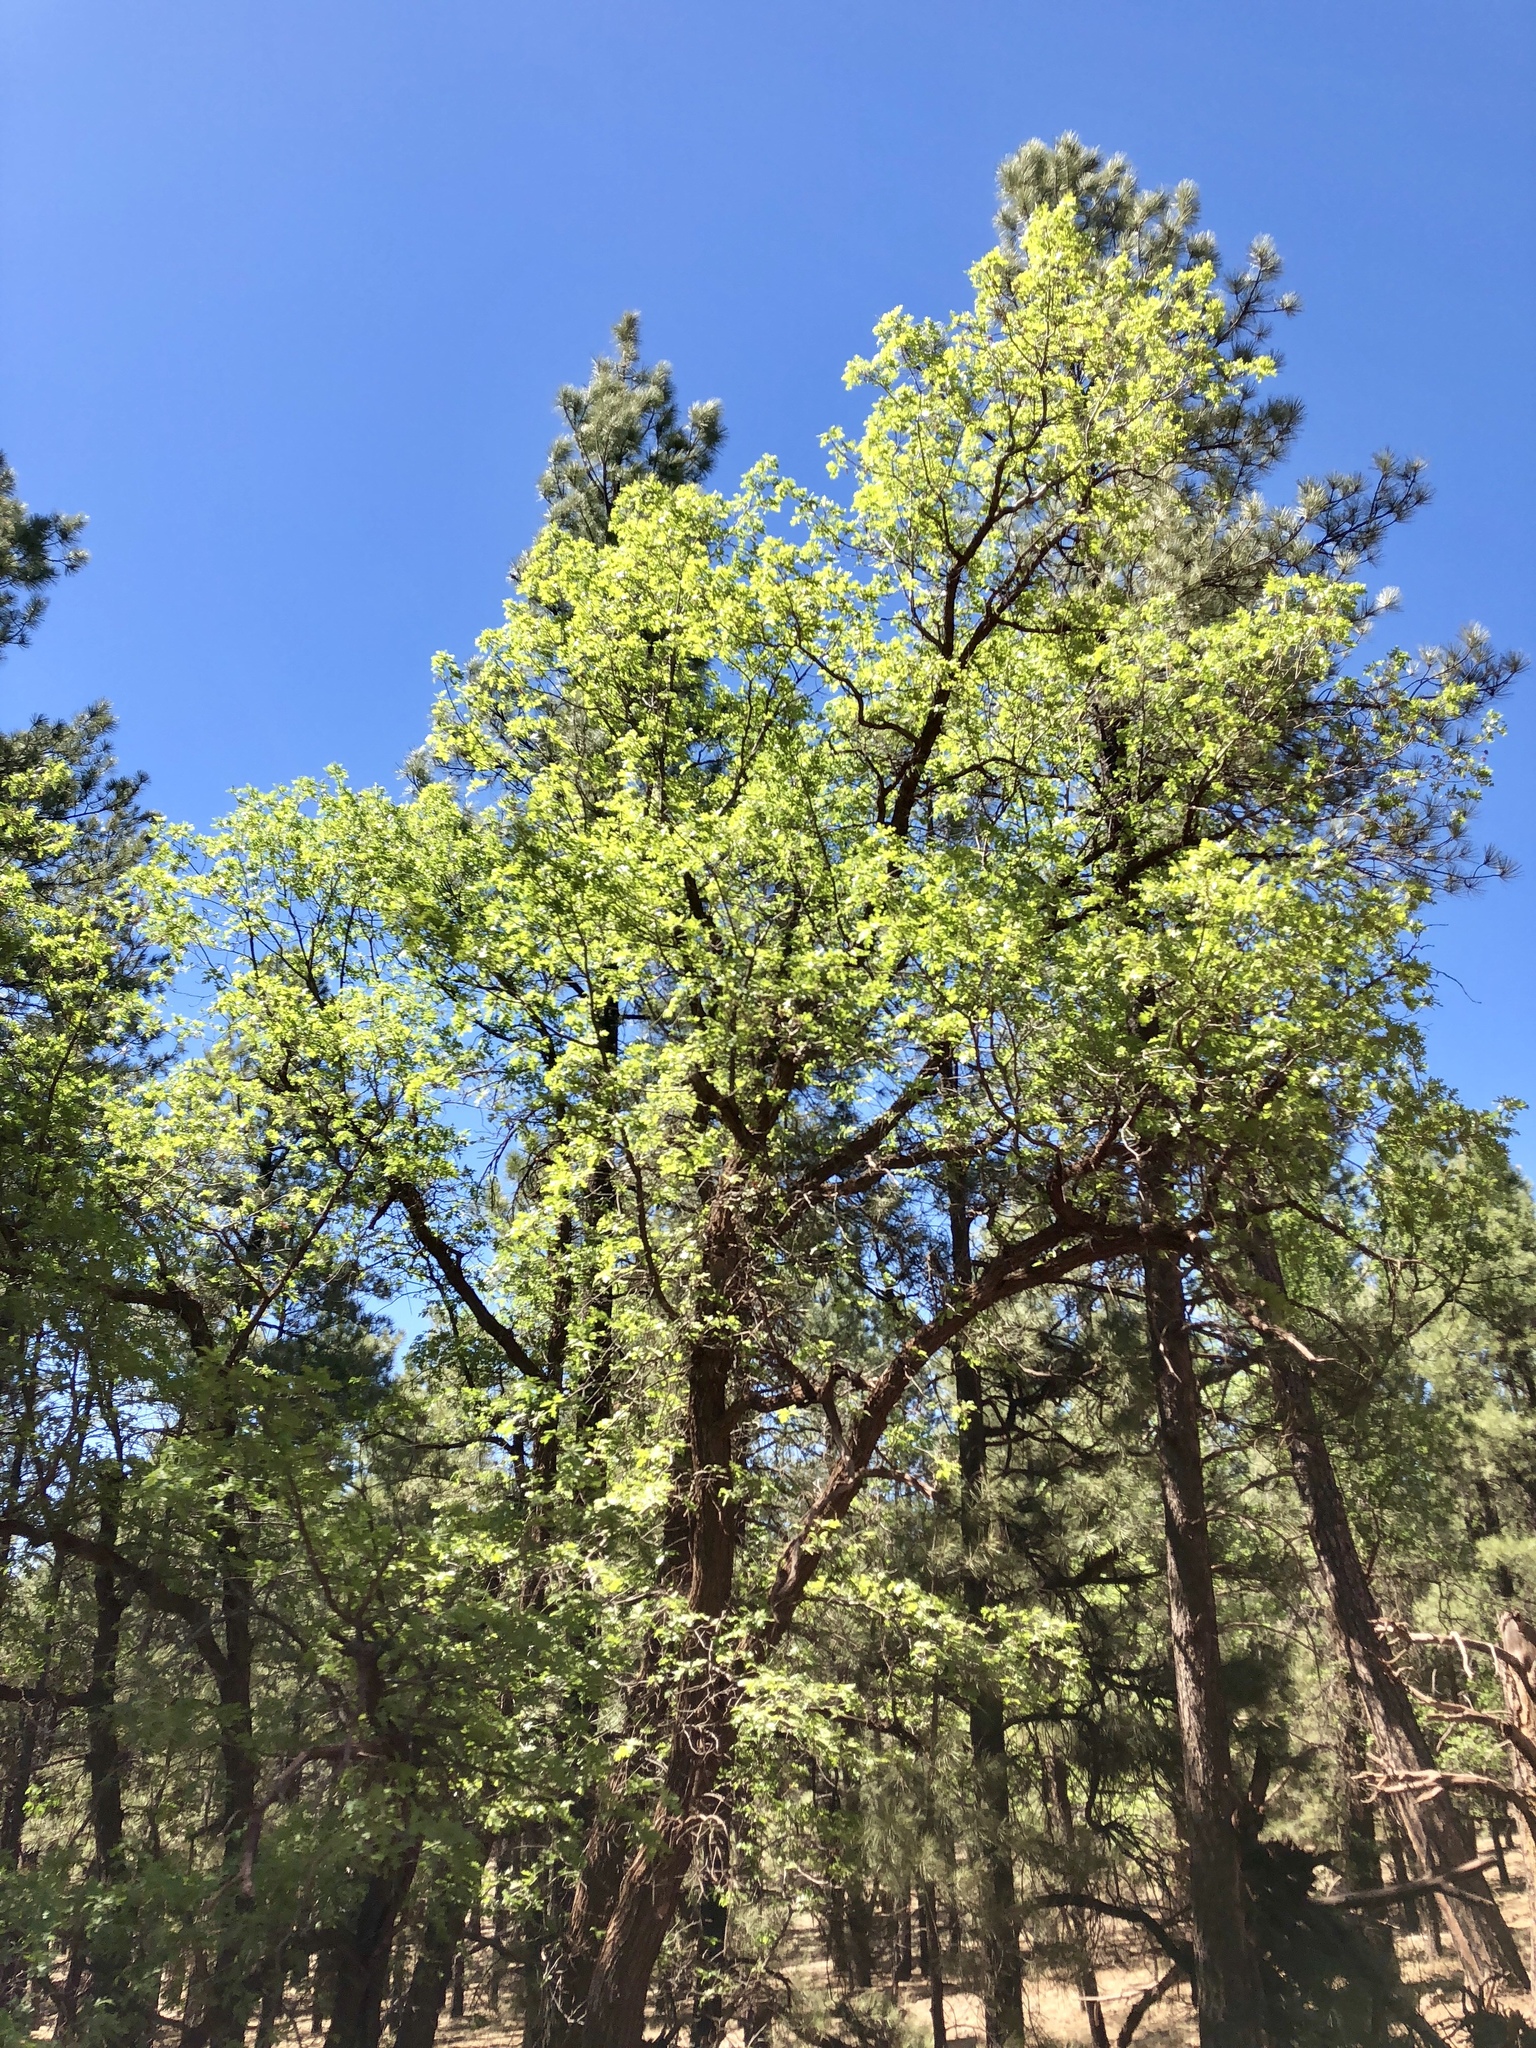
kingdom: Plantae
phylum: Tracheophyta
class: Magnoliopsida
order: Fagales
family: Fagaceae
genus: Quercus
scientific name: Quercus gambelii
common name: Gambel oak
